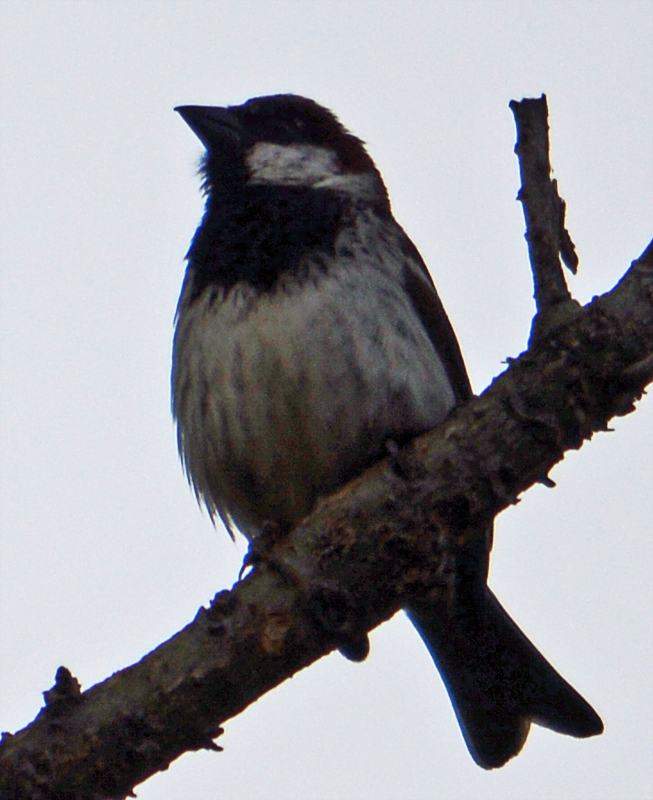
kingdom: Animalia
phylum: Chordata
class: Aves
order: Passeriformes
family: Passeridae
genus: Passer
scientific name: Passer domesticus
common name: House sparrow
